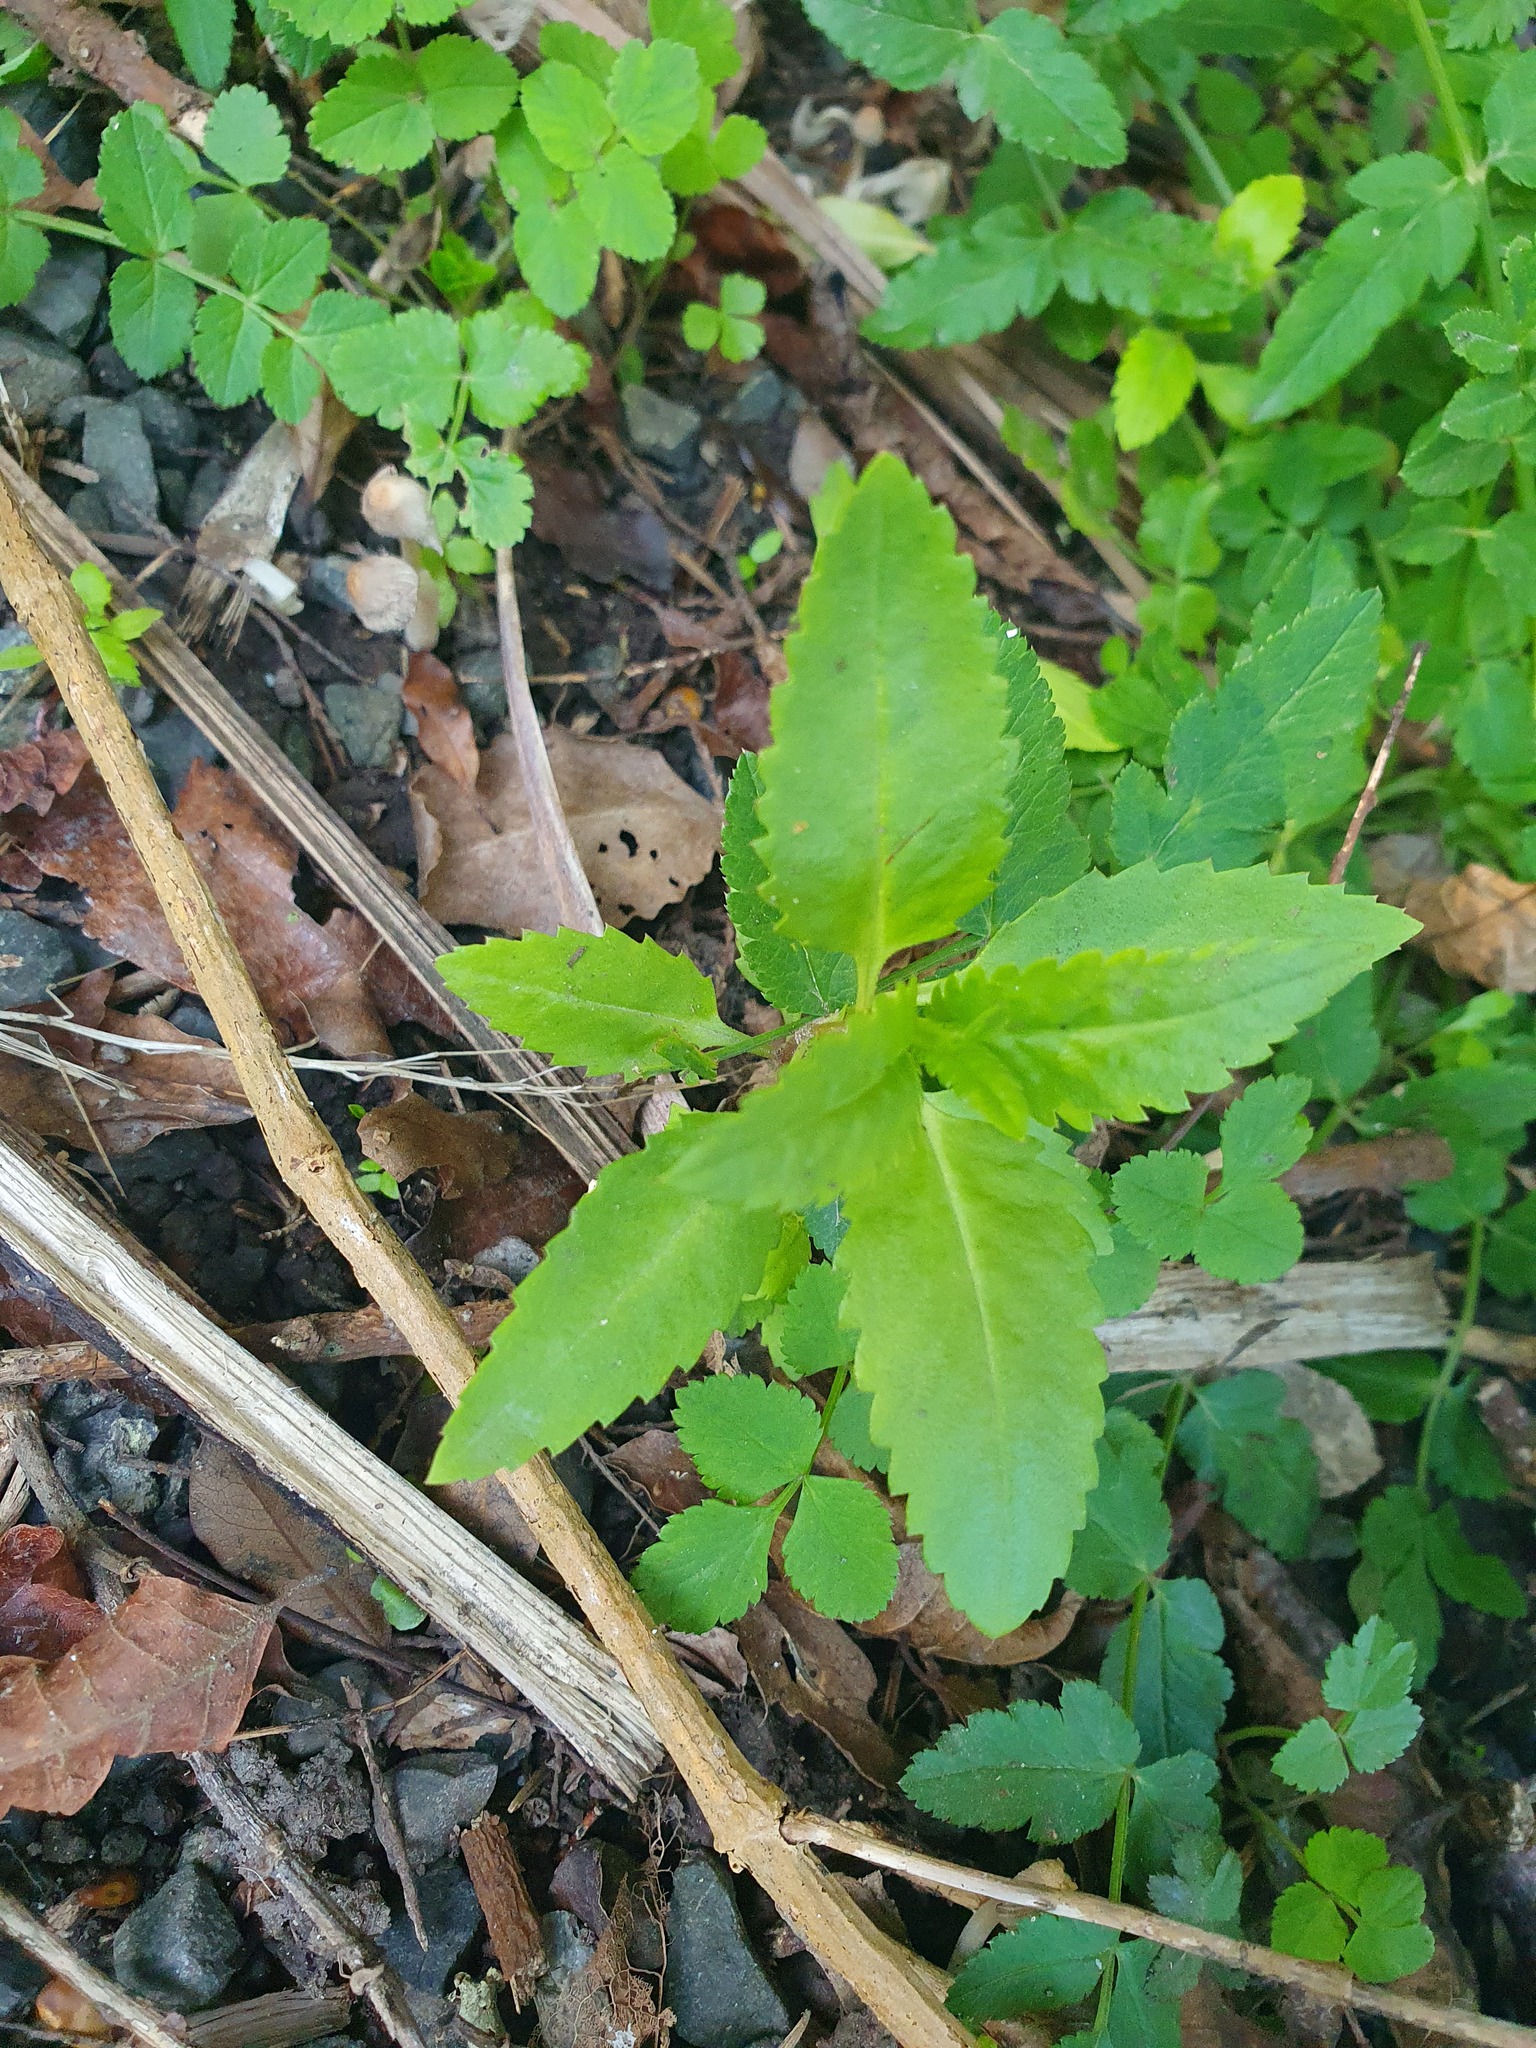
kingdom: Plantae
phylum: Tracheophyta
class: Magnoliopsida
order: Saxifragales
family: Haloragaceae
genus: Haloragis
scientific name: Haloragis erecta
